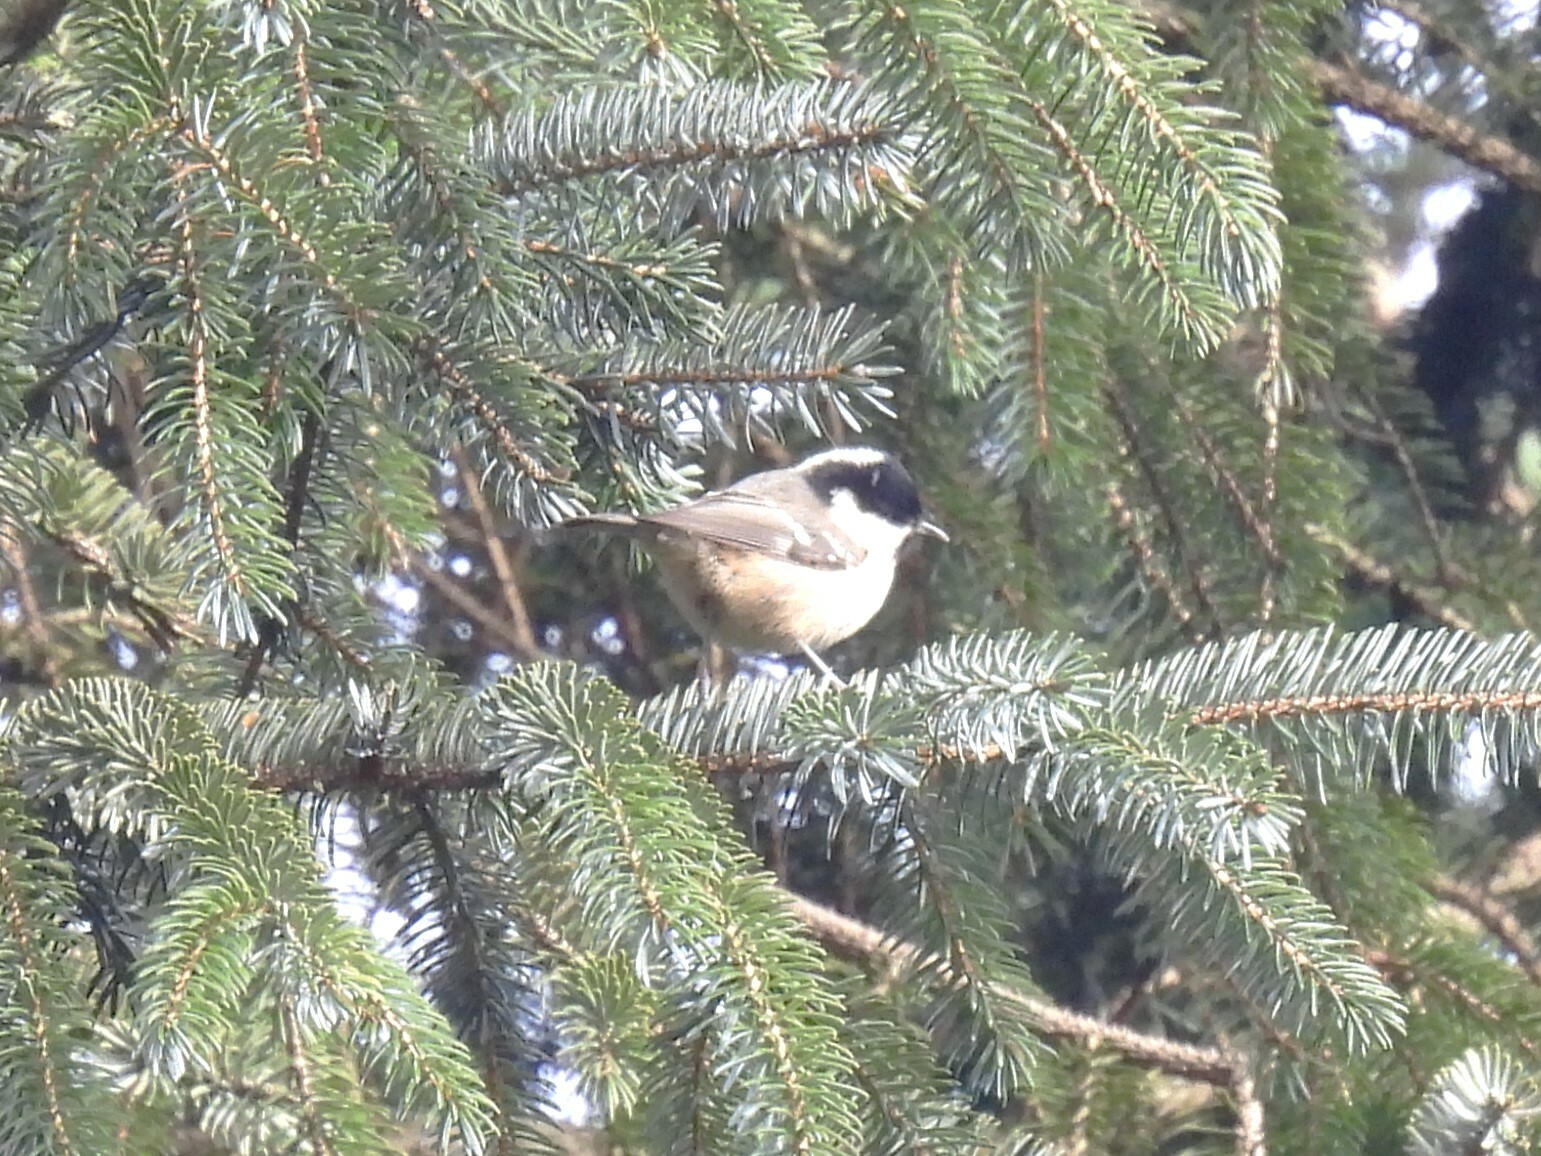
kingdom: Animalia
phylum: Chordata
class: Aves
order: Passeriformes
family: Paridae
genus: Periparus
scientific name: Periparus ater
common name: Coal tit
